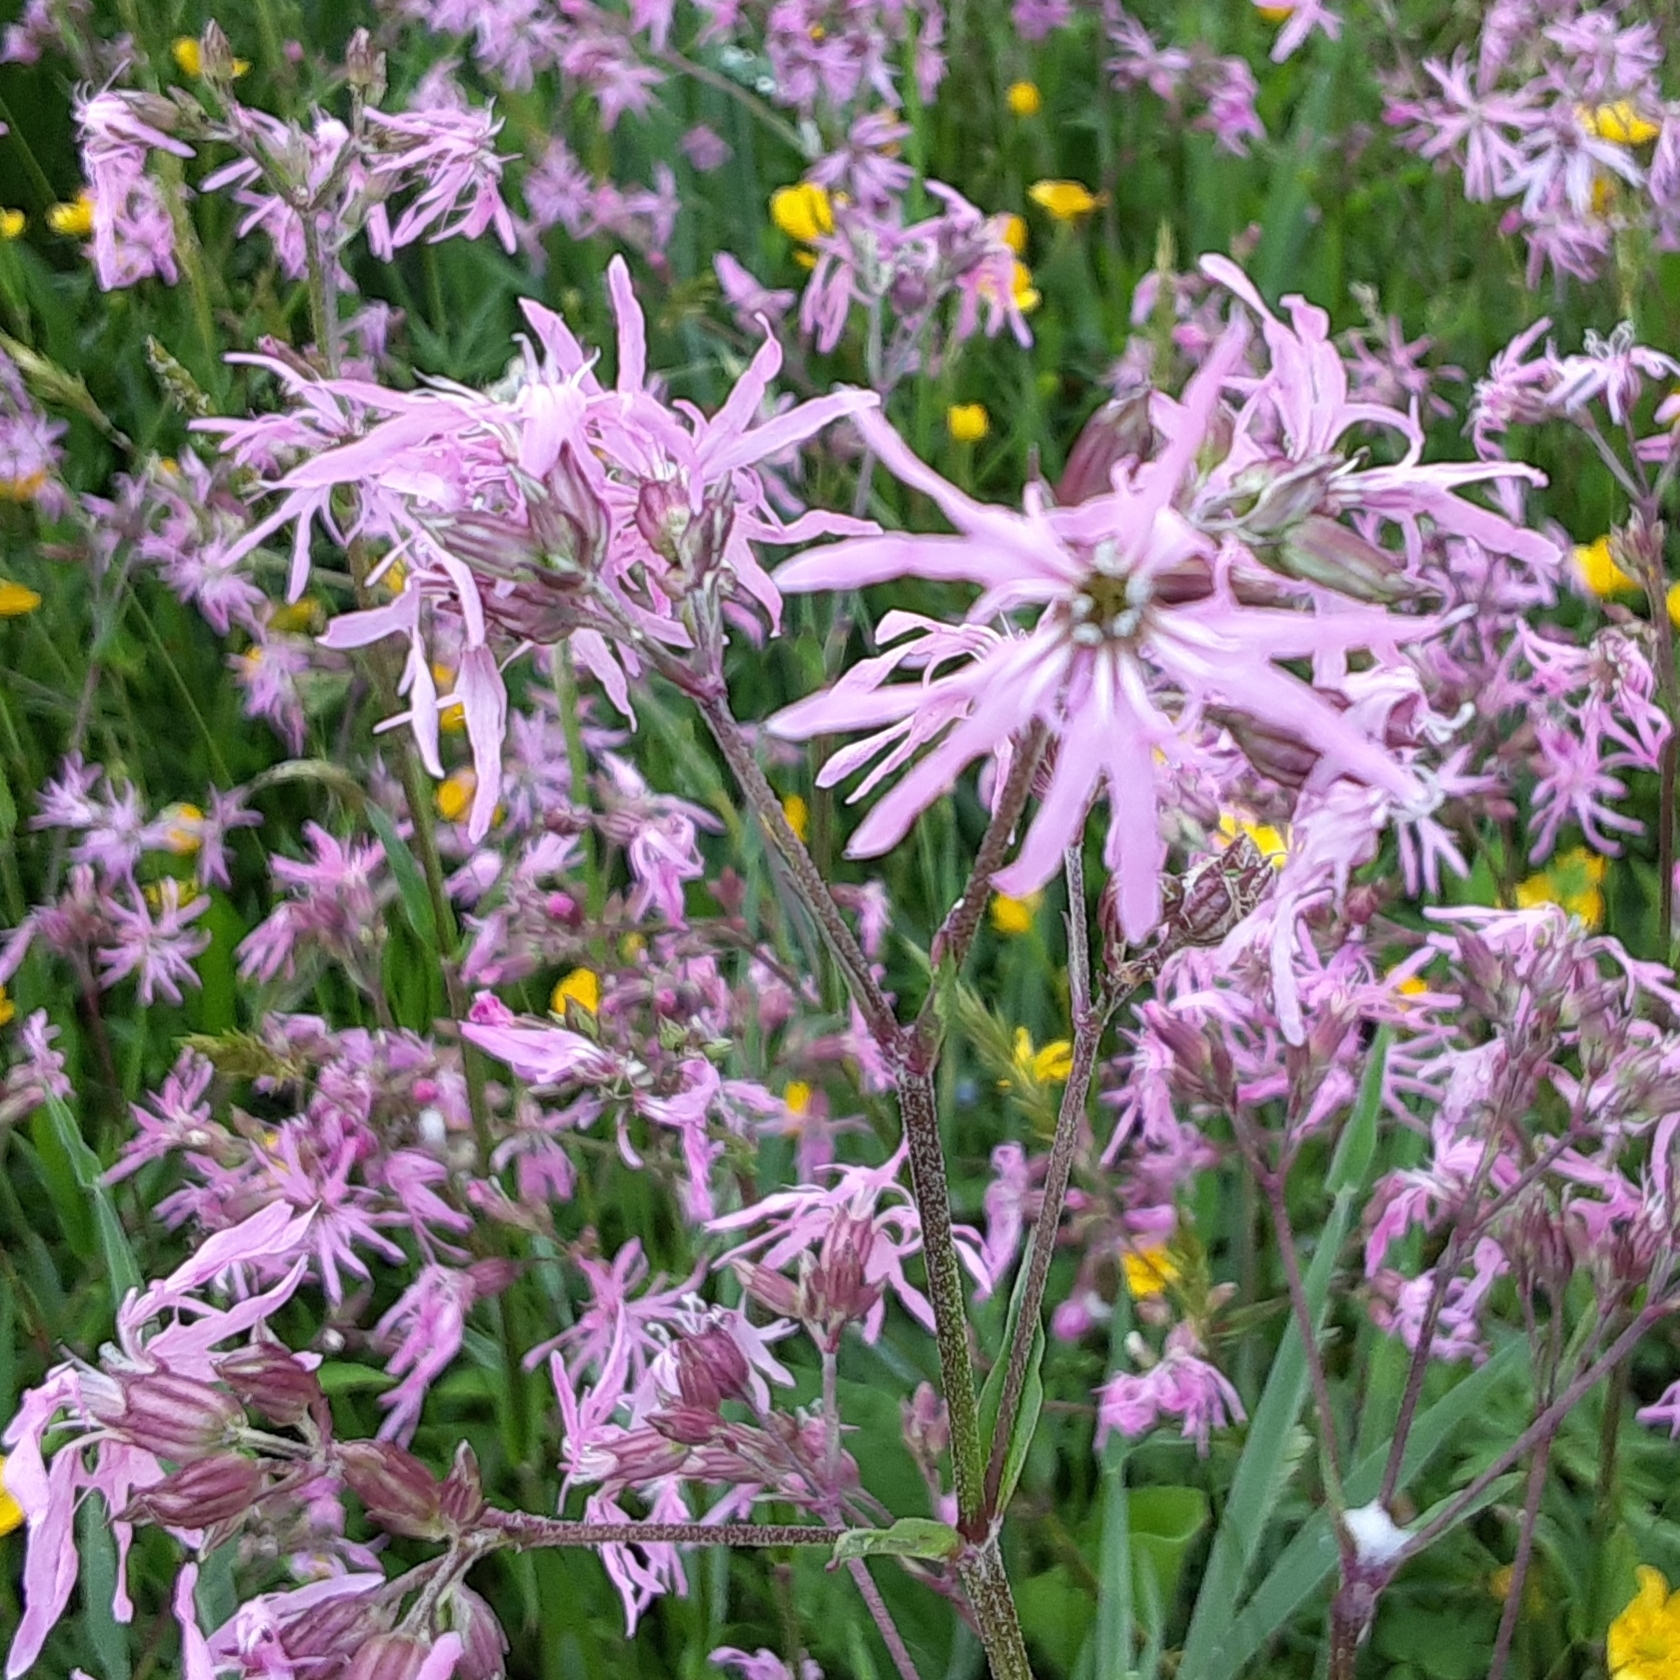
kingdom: Plantae
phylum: Tracheophyta
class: Magnoliopsida
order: Caryophyllales
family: Caryophyllaceae
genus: Silene
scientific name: Silene flos-cuculi
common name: Ragged-robin
